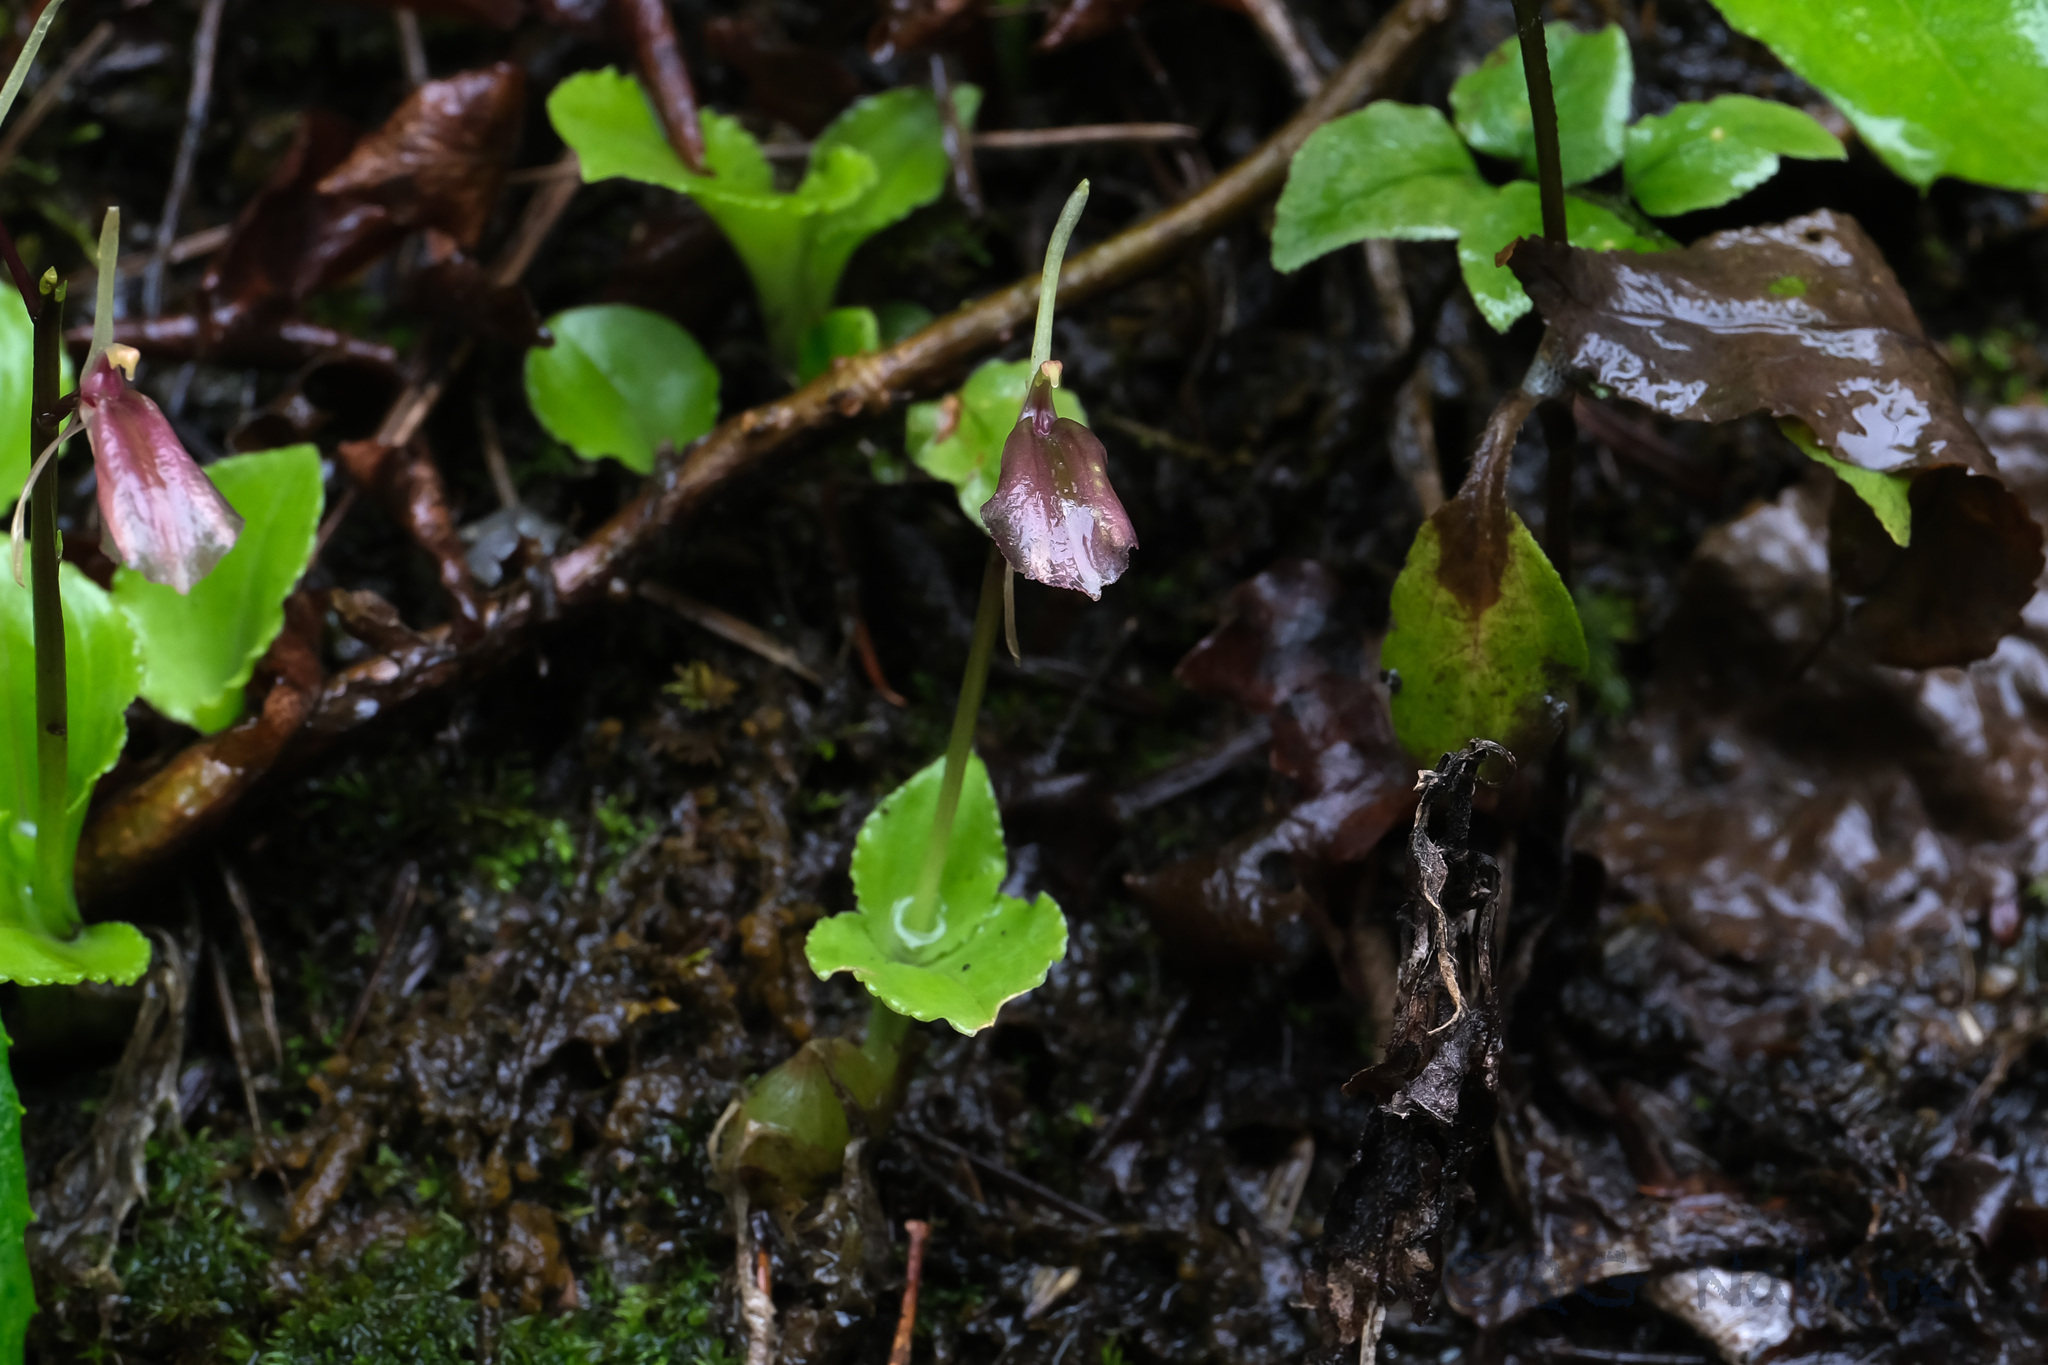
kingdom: Plantae
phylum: Tracheophyta
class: Liliopsida
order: Asparagales
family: Orchidaceae
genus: Liparis
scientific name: Liparis pauliana
